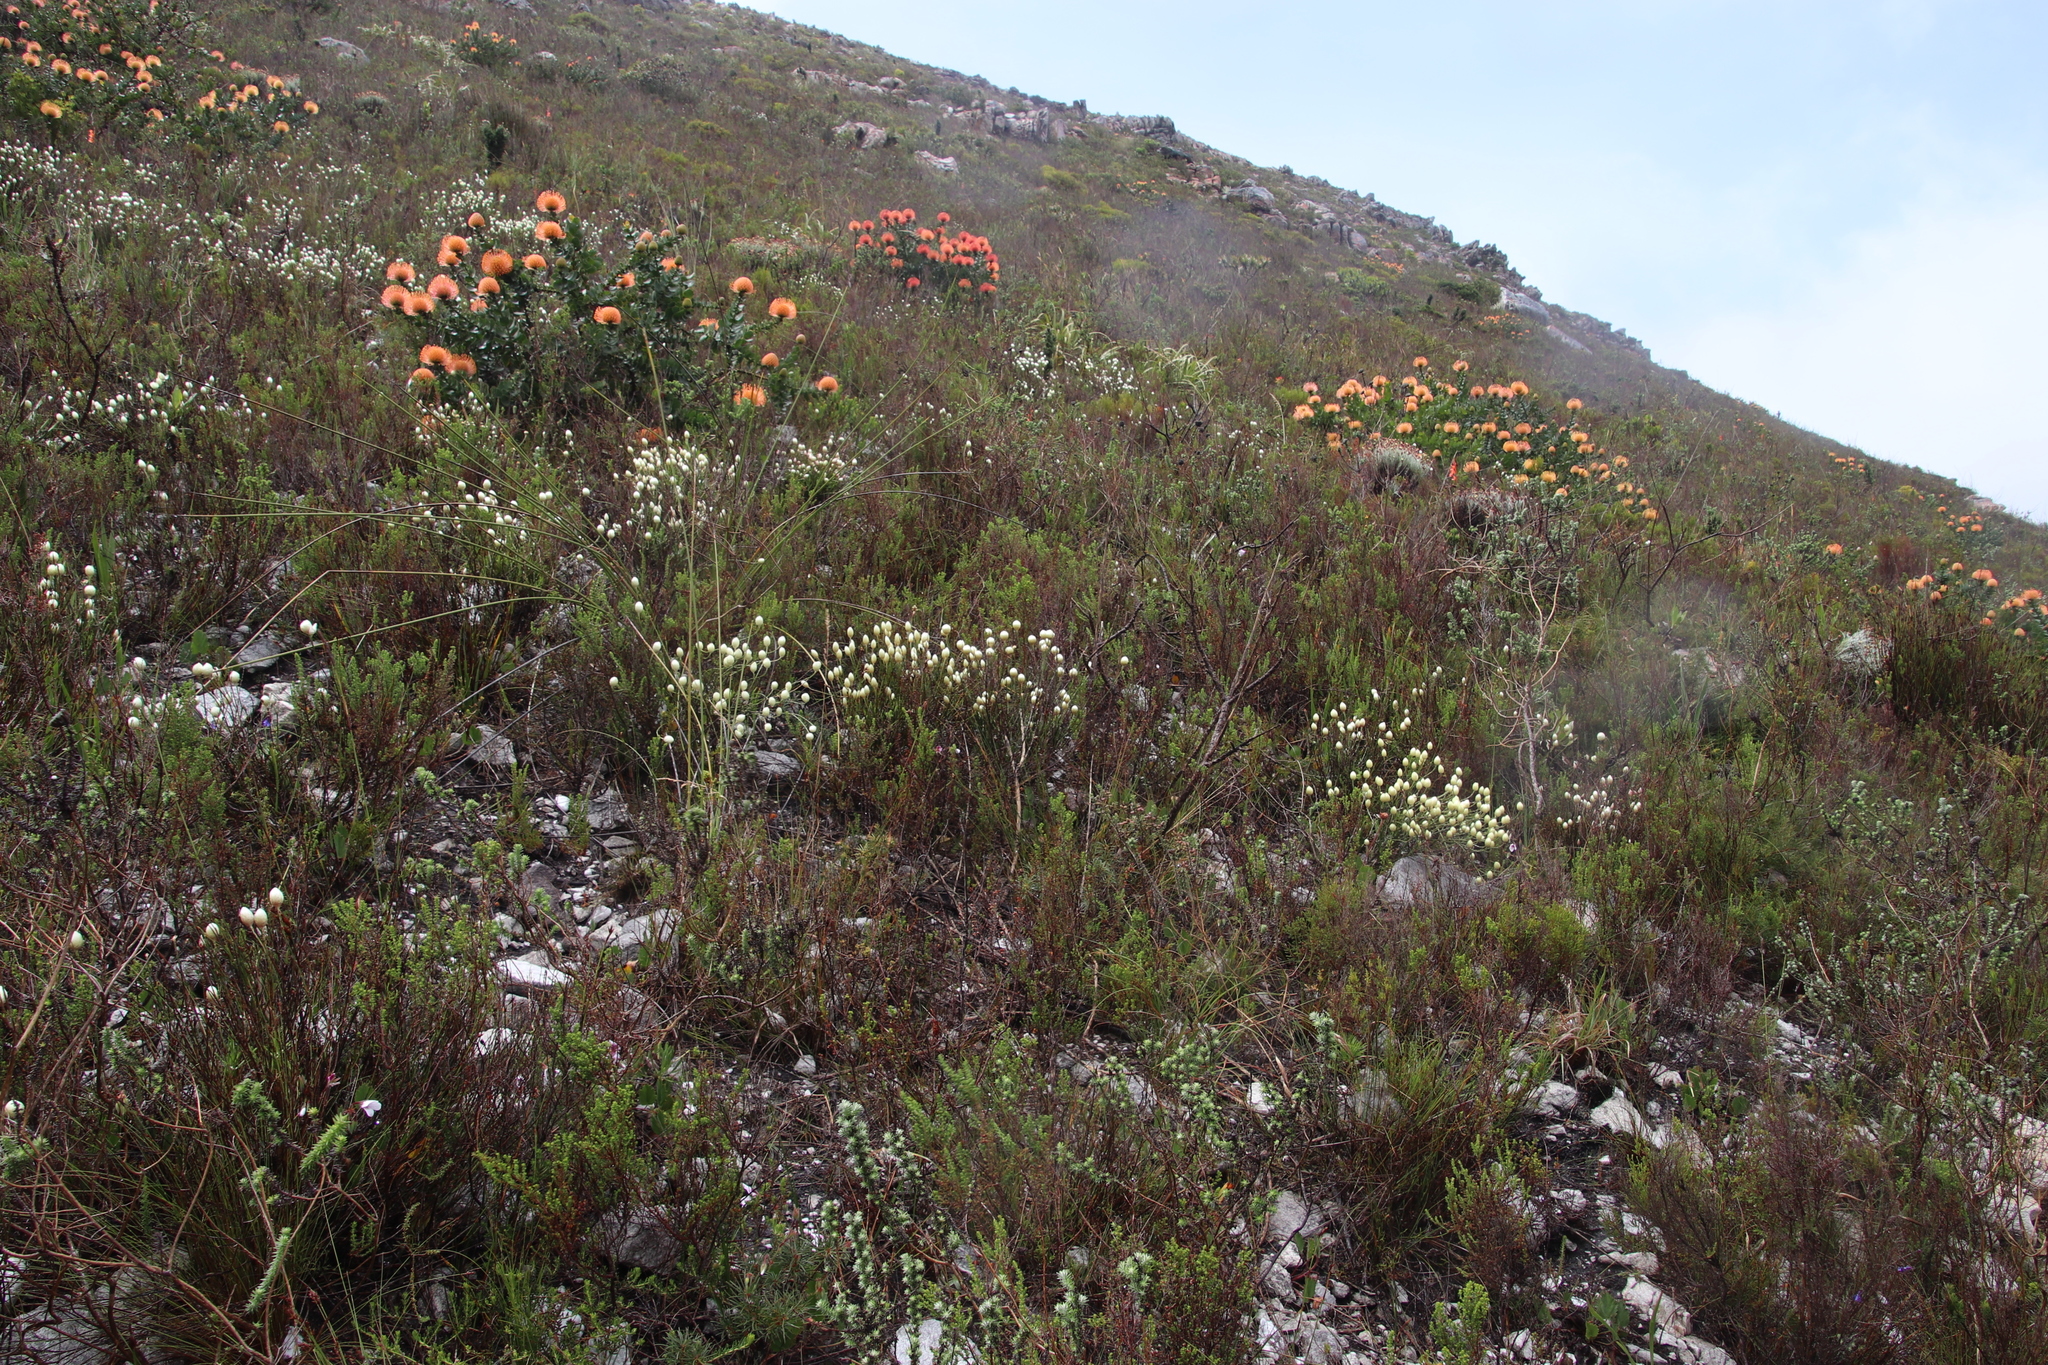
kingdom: Plantae
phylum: Tracheophyta
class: Magnoliopsida
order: Asterales
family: Asteraceae
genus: Edmondia
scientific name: Edmondia sesamoides
